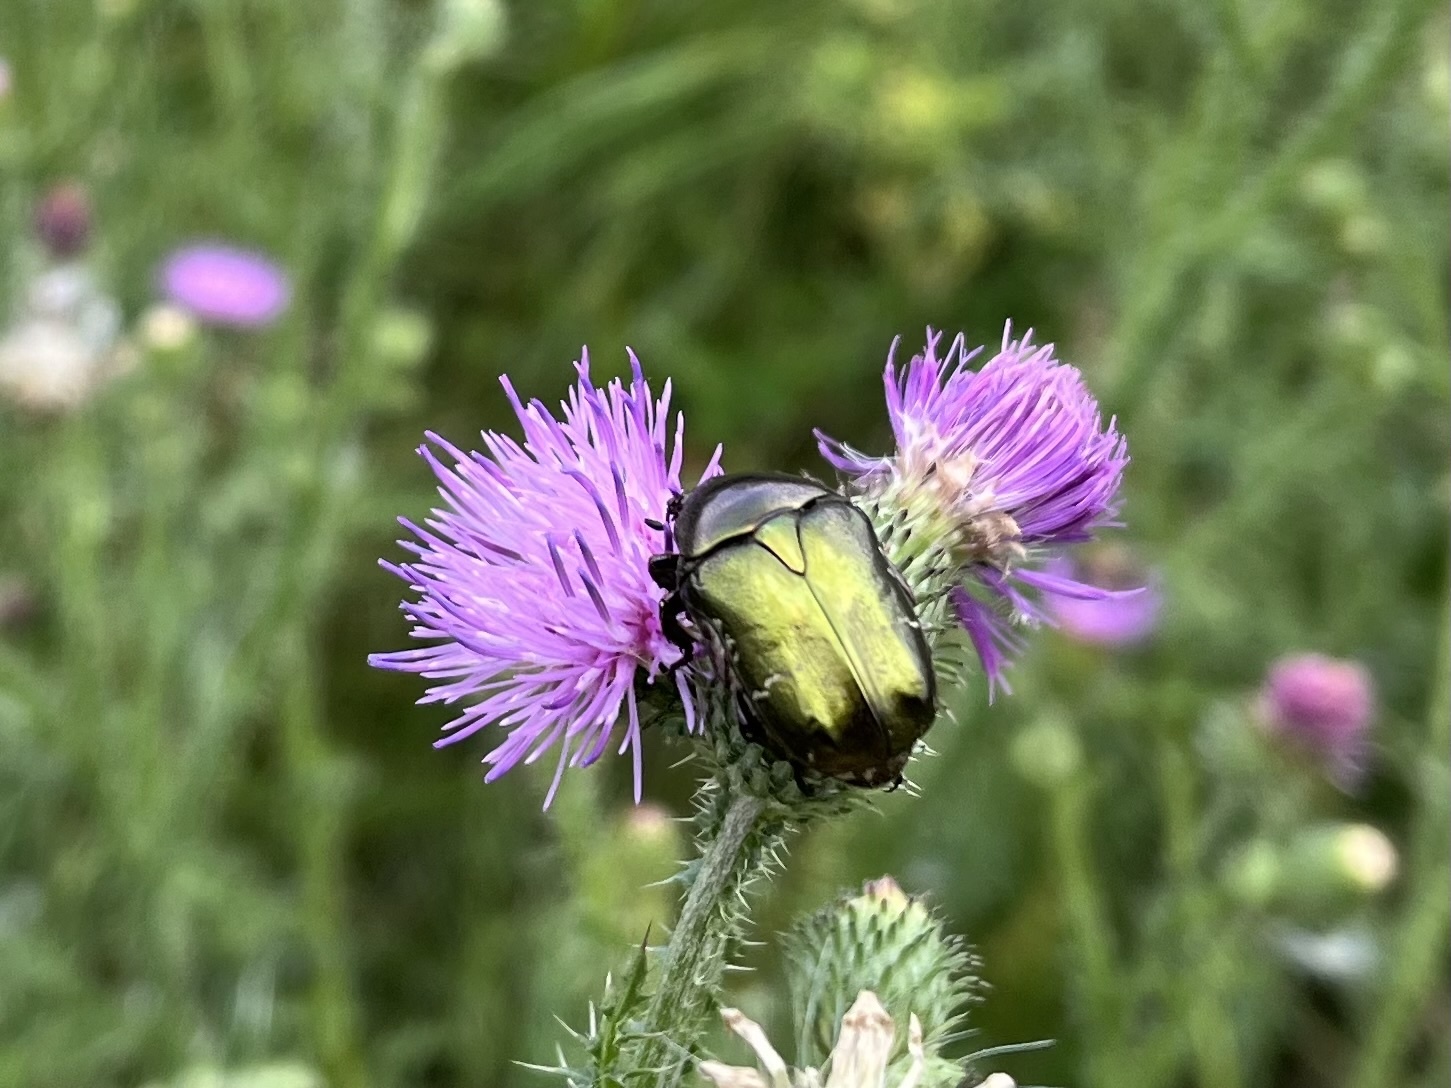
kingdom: Animalia
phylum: Arthropoda
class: Insecta
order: Coleoptera
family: Scarabaeidae
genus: Protaetia
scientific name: Protaetia cuprea
